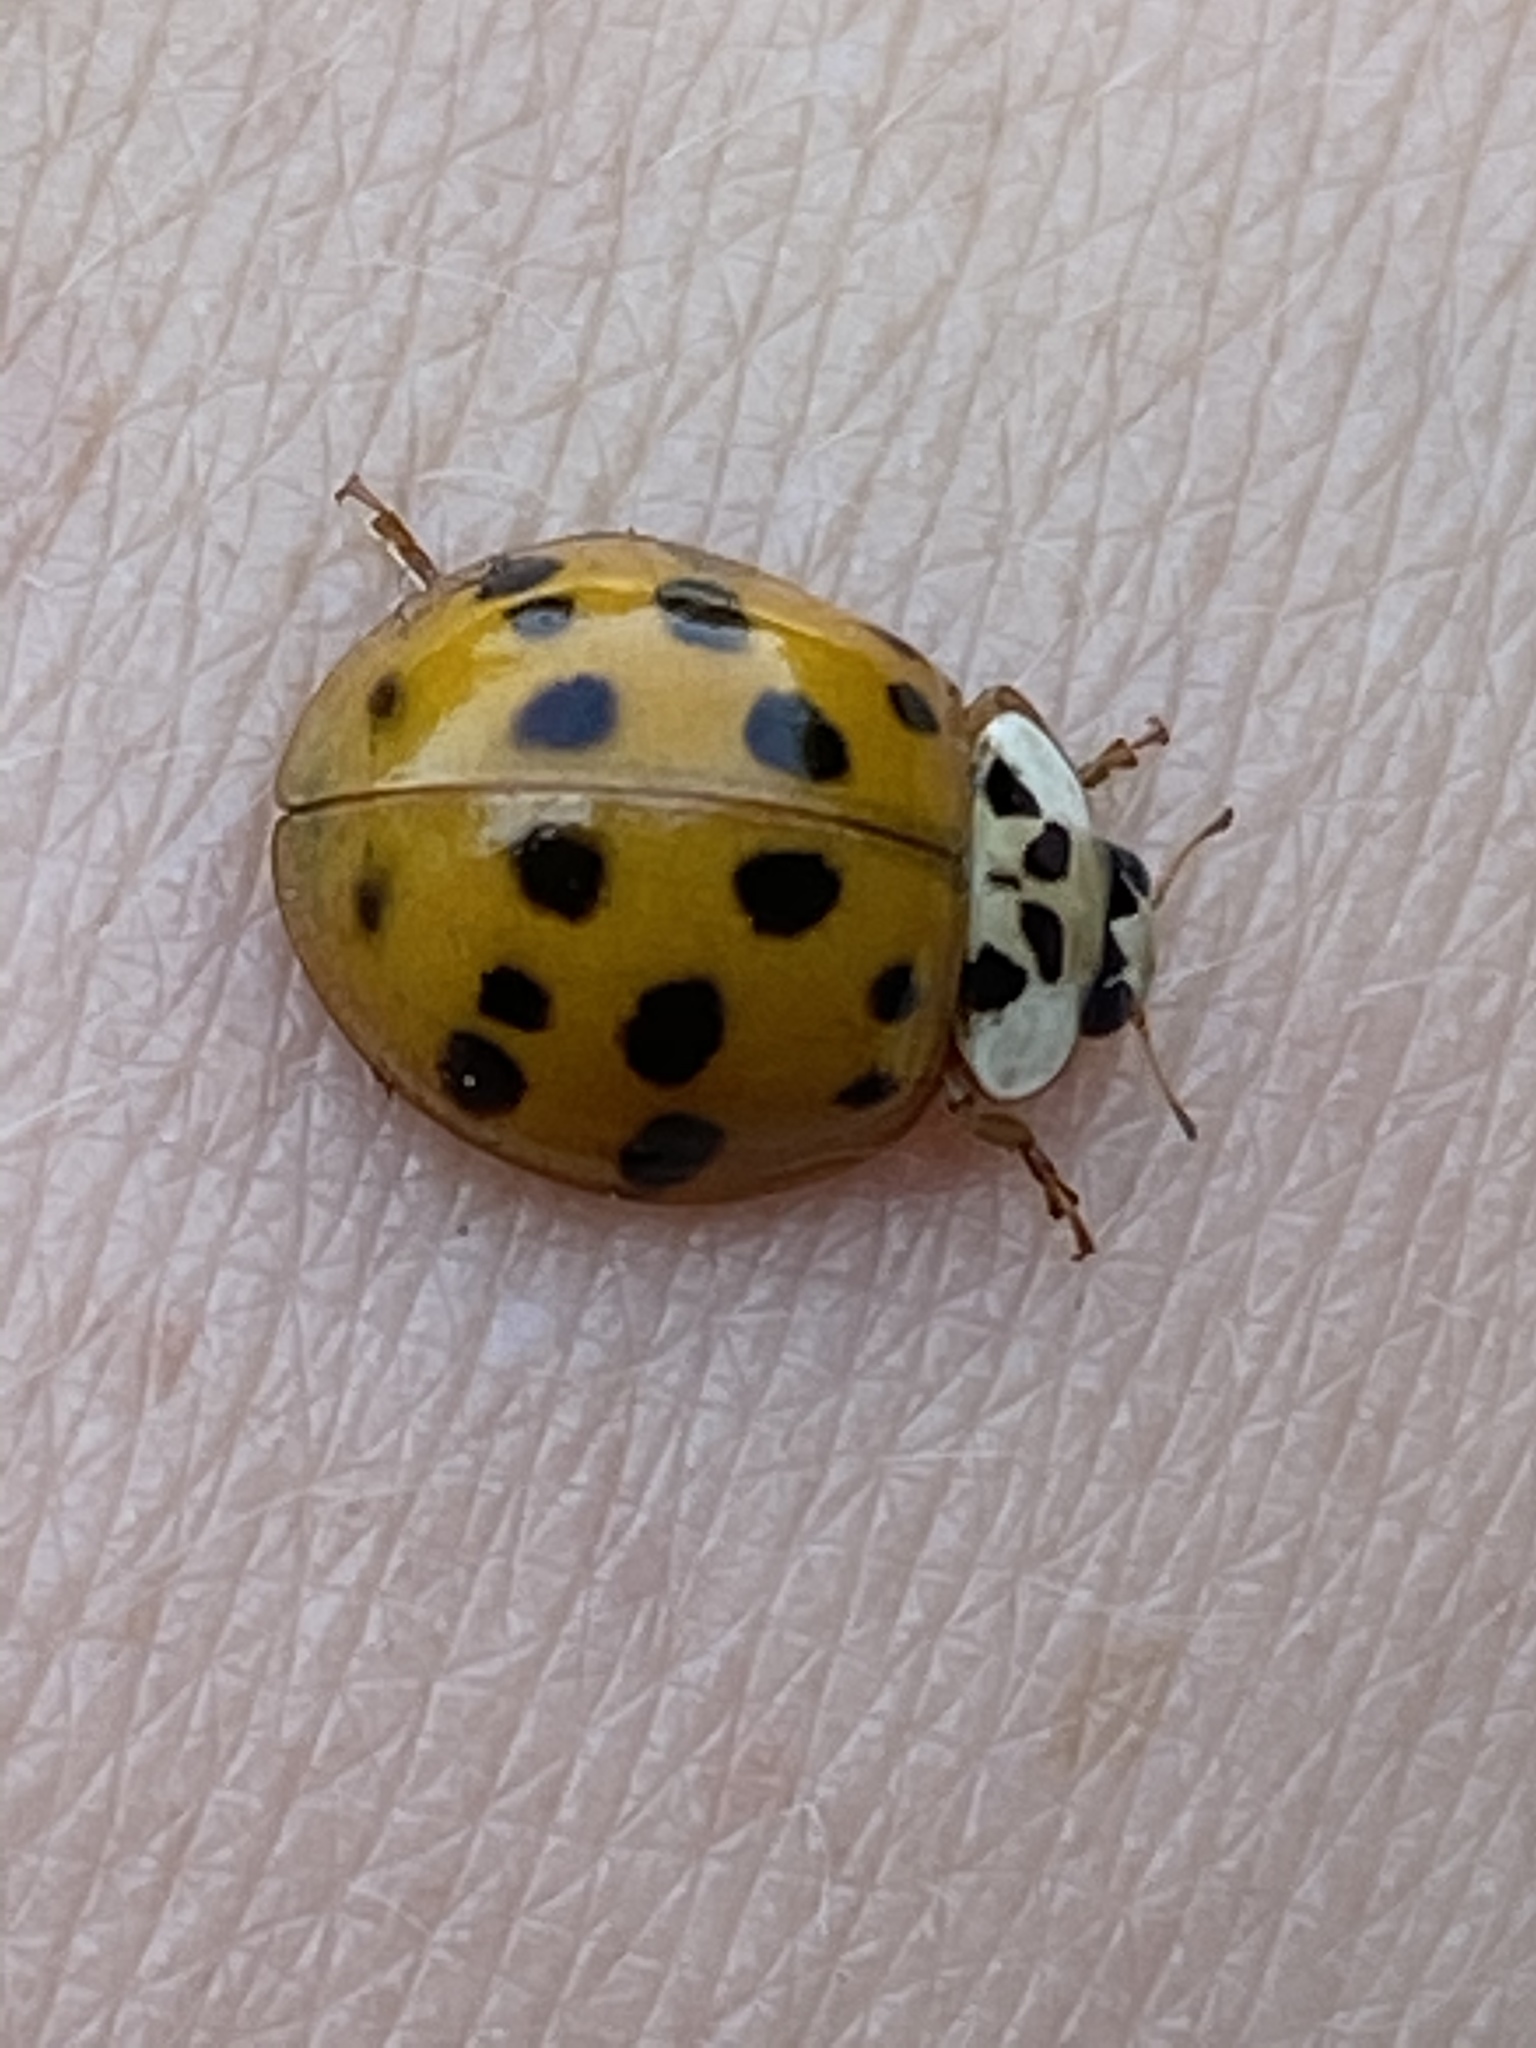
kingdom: Animalia
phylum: Arthropoda
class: Insecta
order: Coleoptera
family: Coccinellidae
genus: Harmonia
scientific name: Harmonia axyridis
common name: Harlequin ladybird
